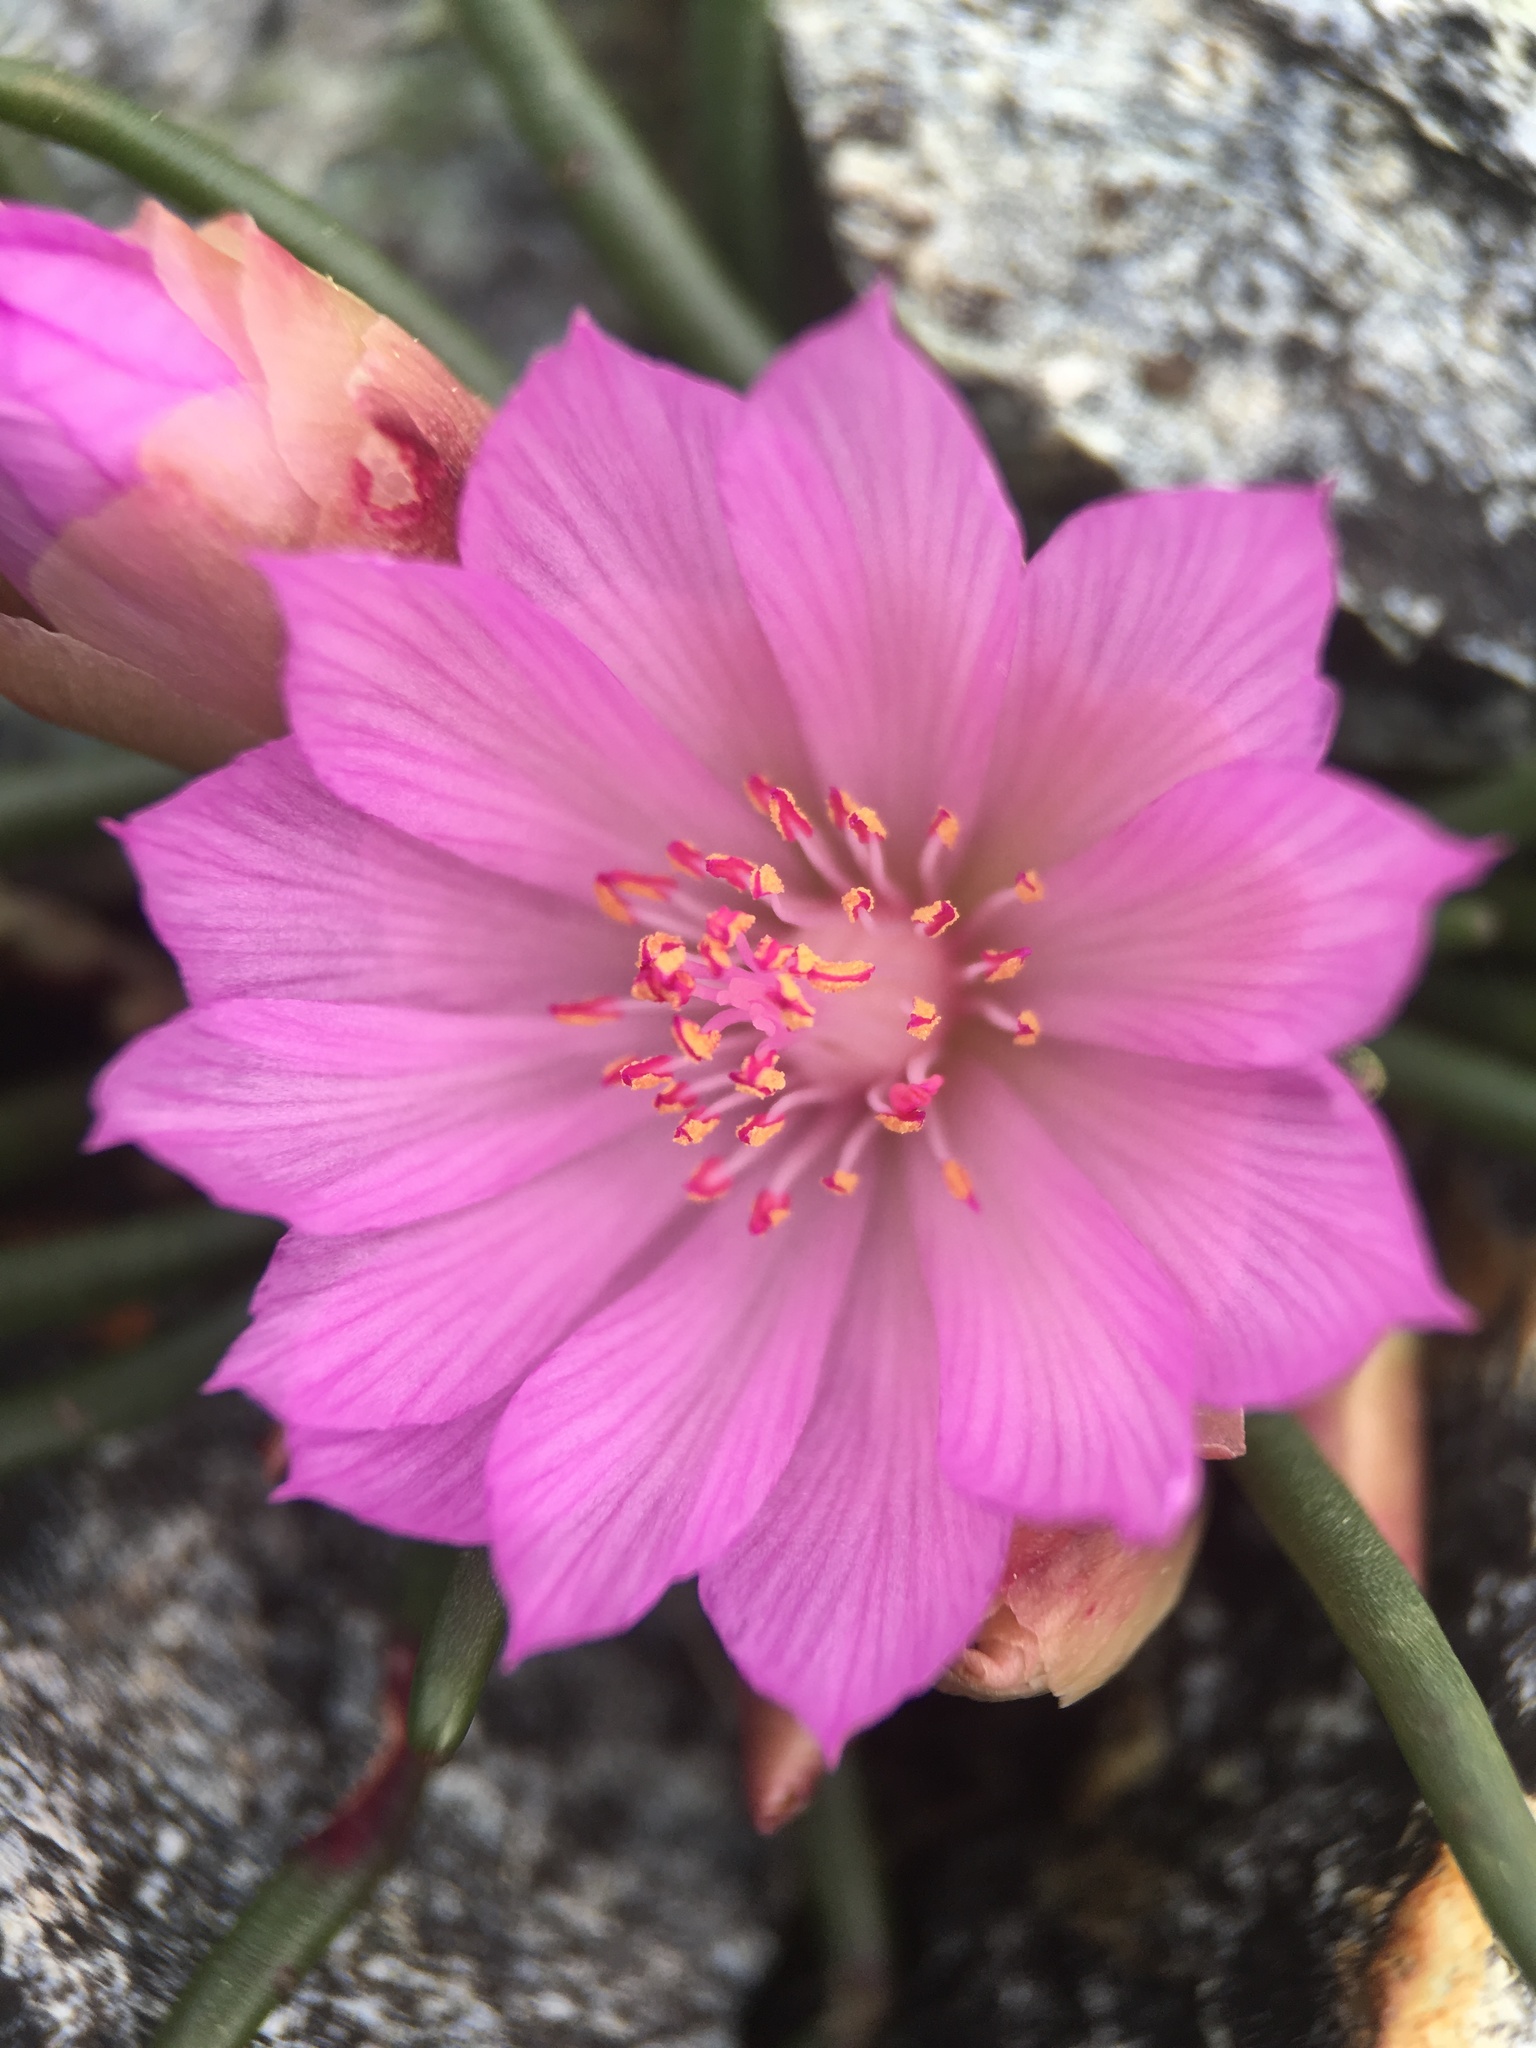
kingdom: Plantae
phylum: Tracheophyta
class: Magnoliopsida
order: Caryophyllales
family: Montiaceae
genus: Lewisia
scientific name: Lewisia rediviva
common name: Bitter-root
